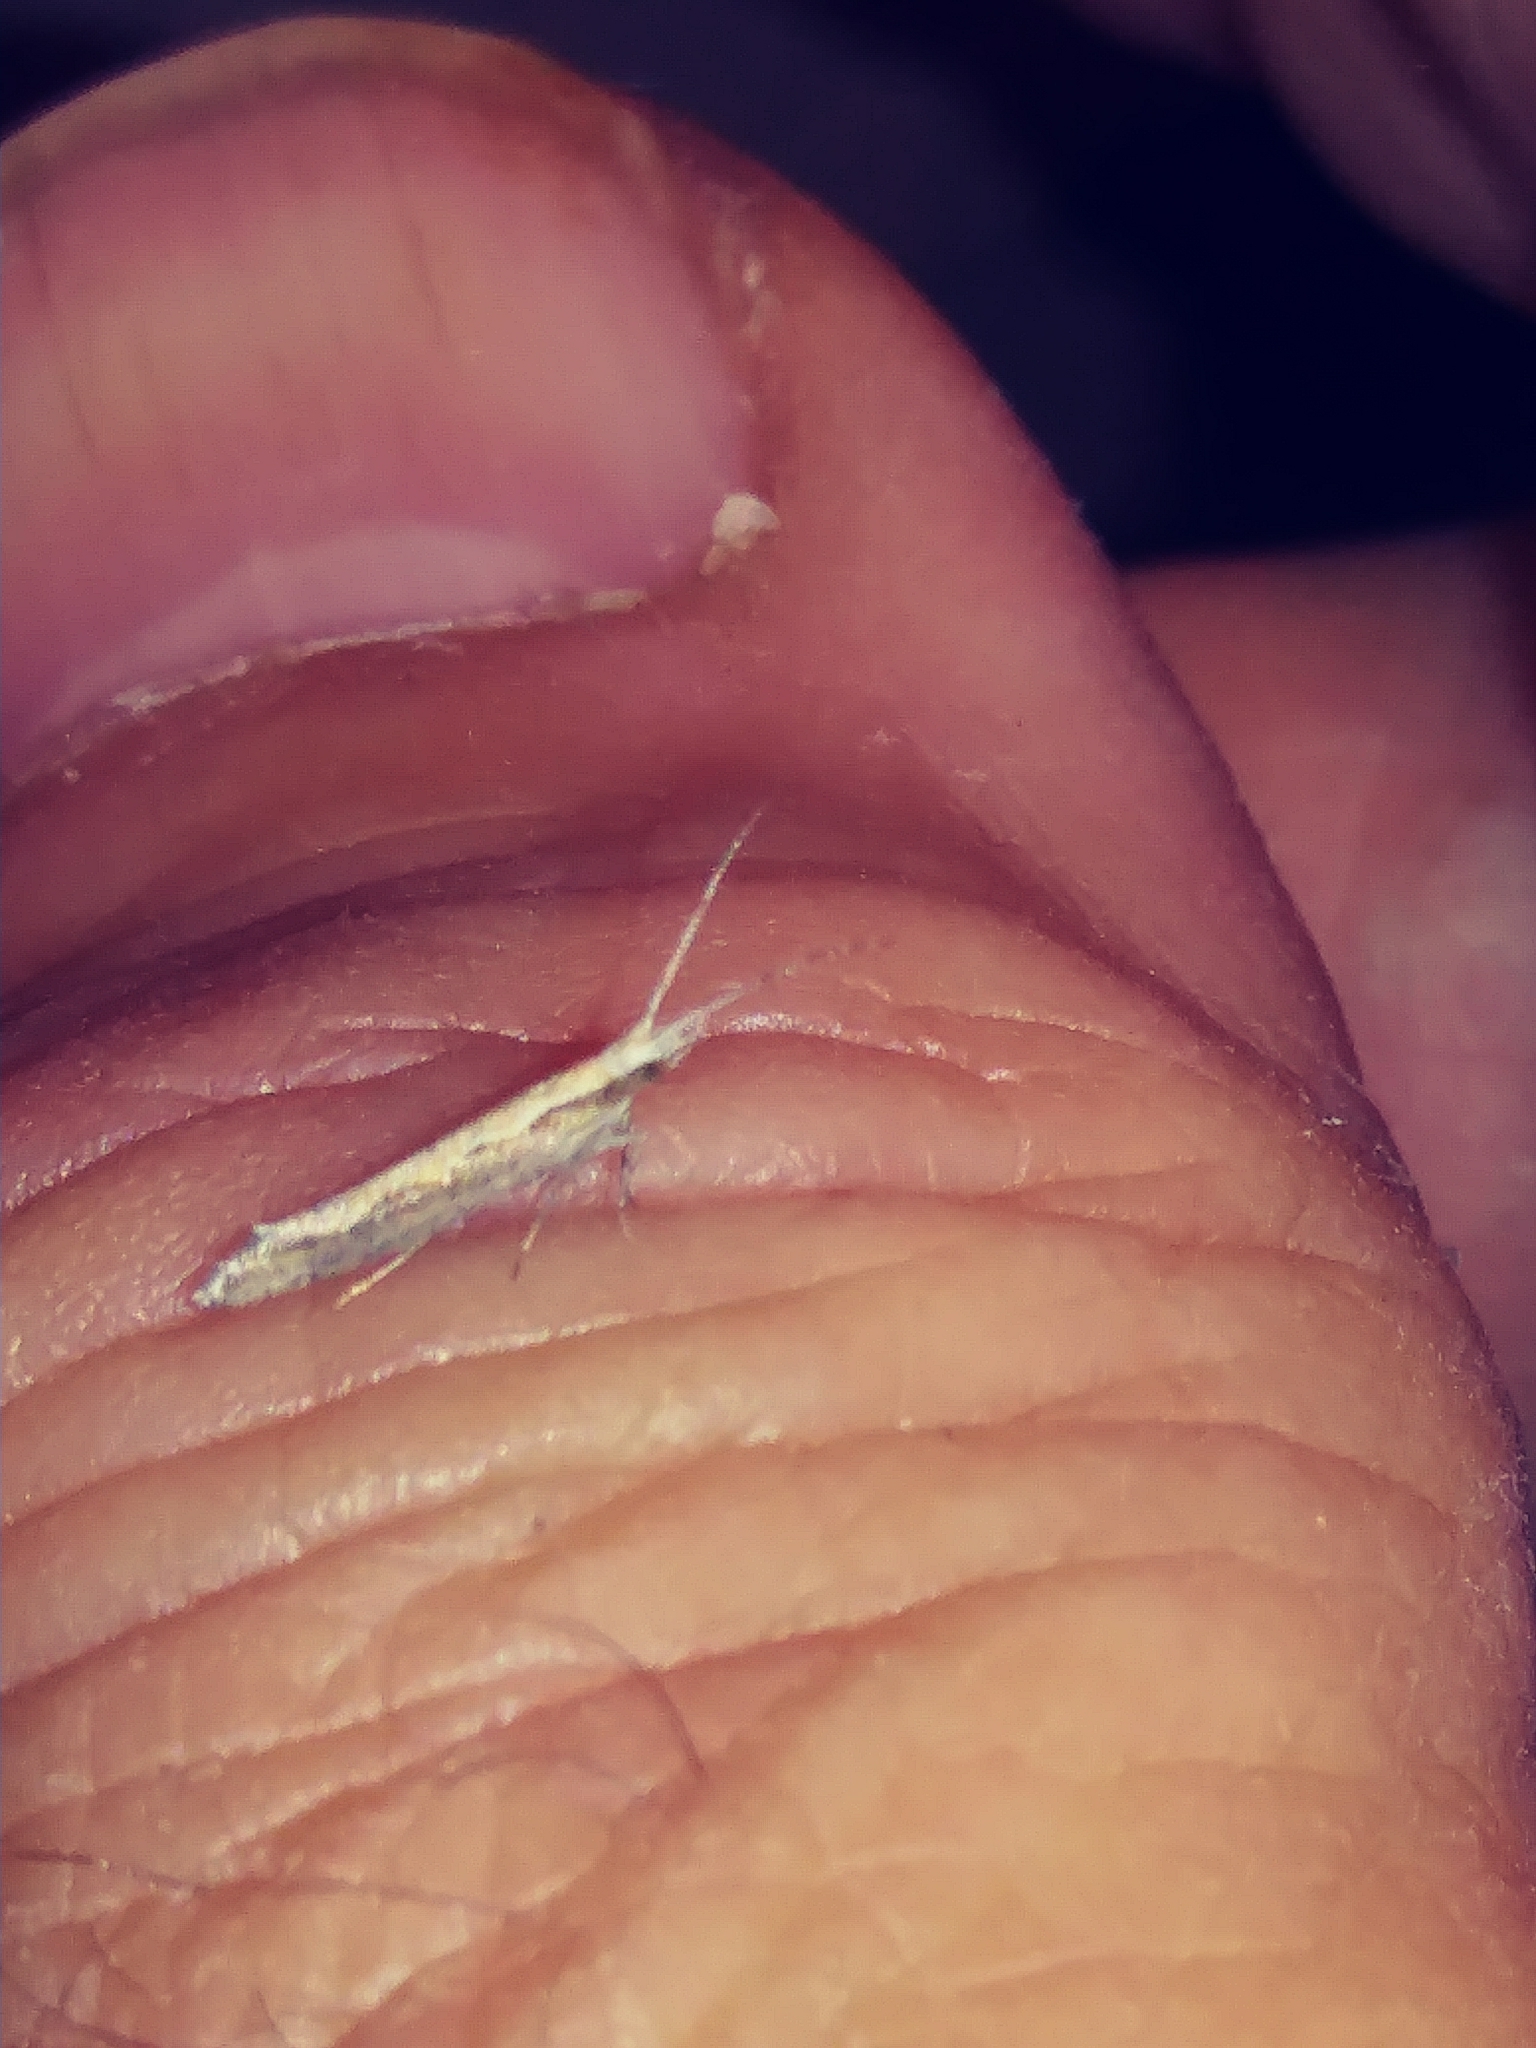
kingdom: Animalia
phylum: Arthropoda
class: Insecta
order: Lepidoptera
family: Plutellidae
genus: Plutella
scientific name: Plutella xylostella
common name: Diamond-back moth
